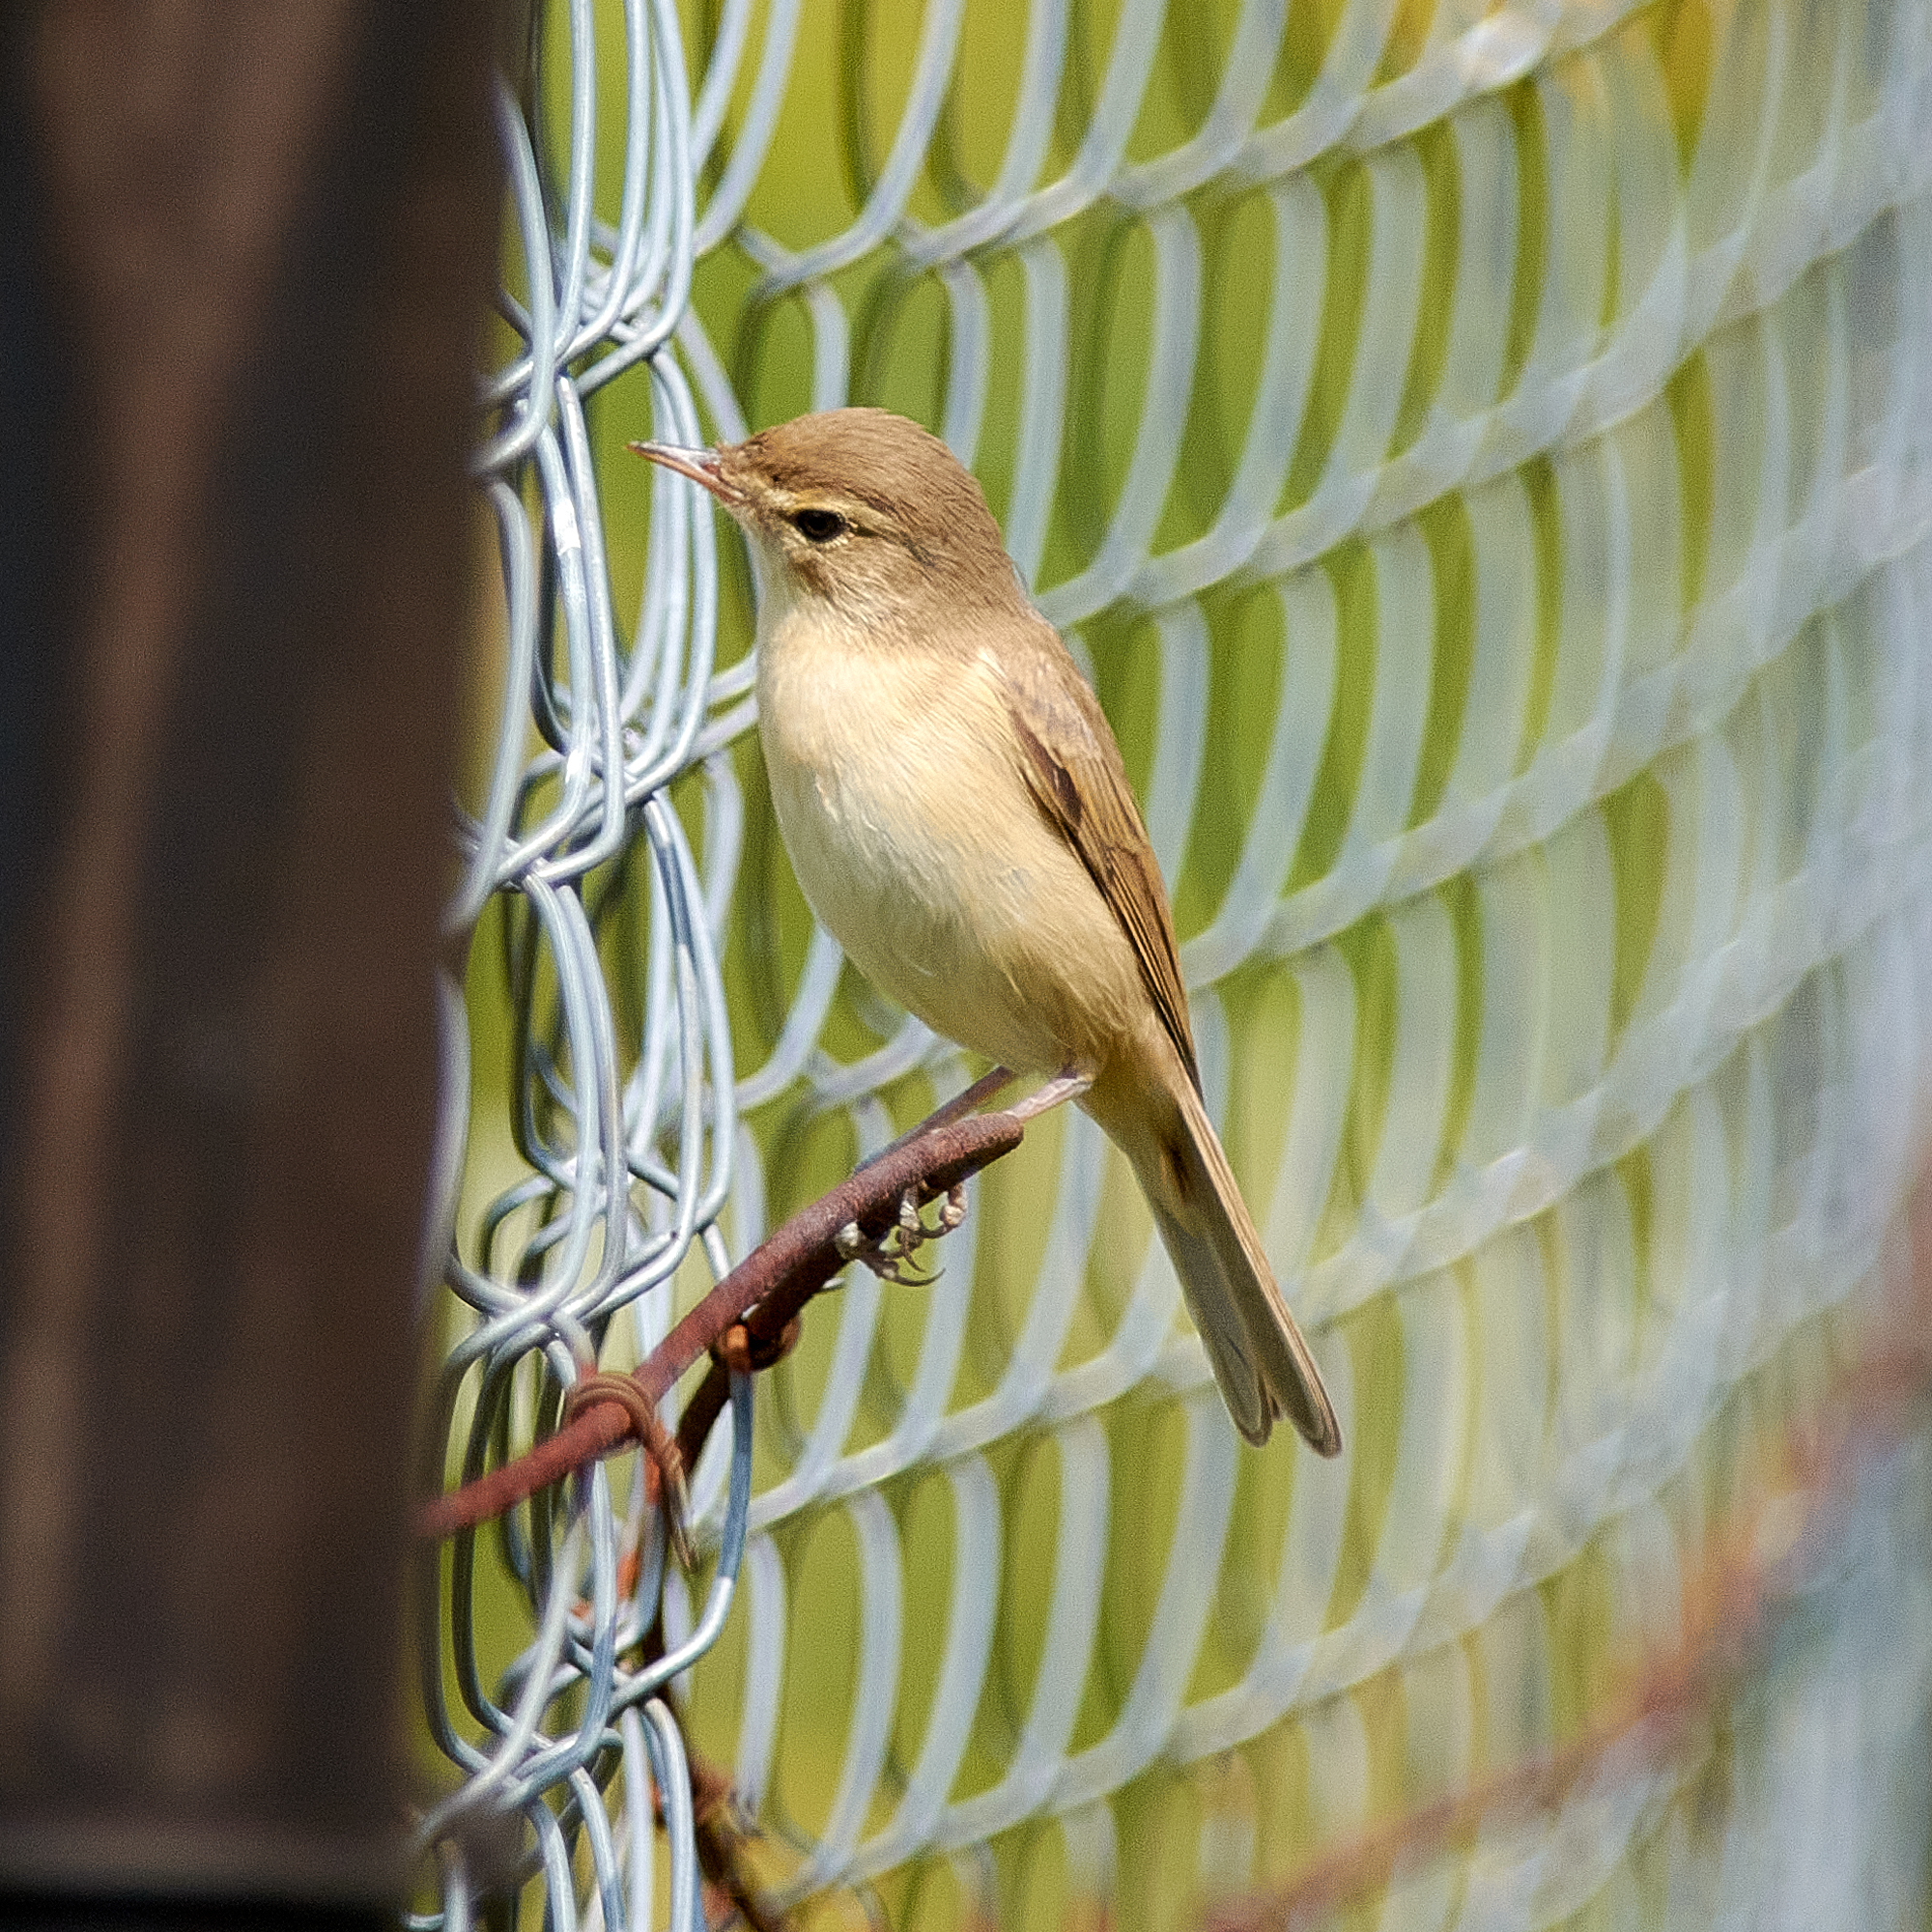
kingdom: Animalia
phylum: Chordata
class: Aves
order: Passeriformes
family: Acrocephalidae
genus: Iduna
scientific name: Iduna caligata
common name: Booted warbler
